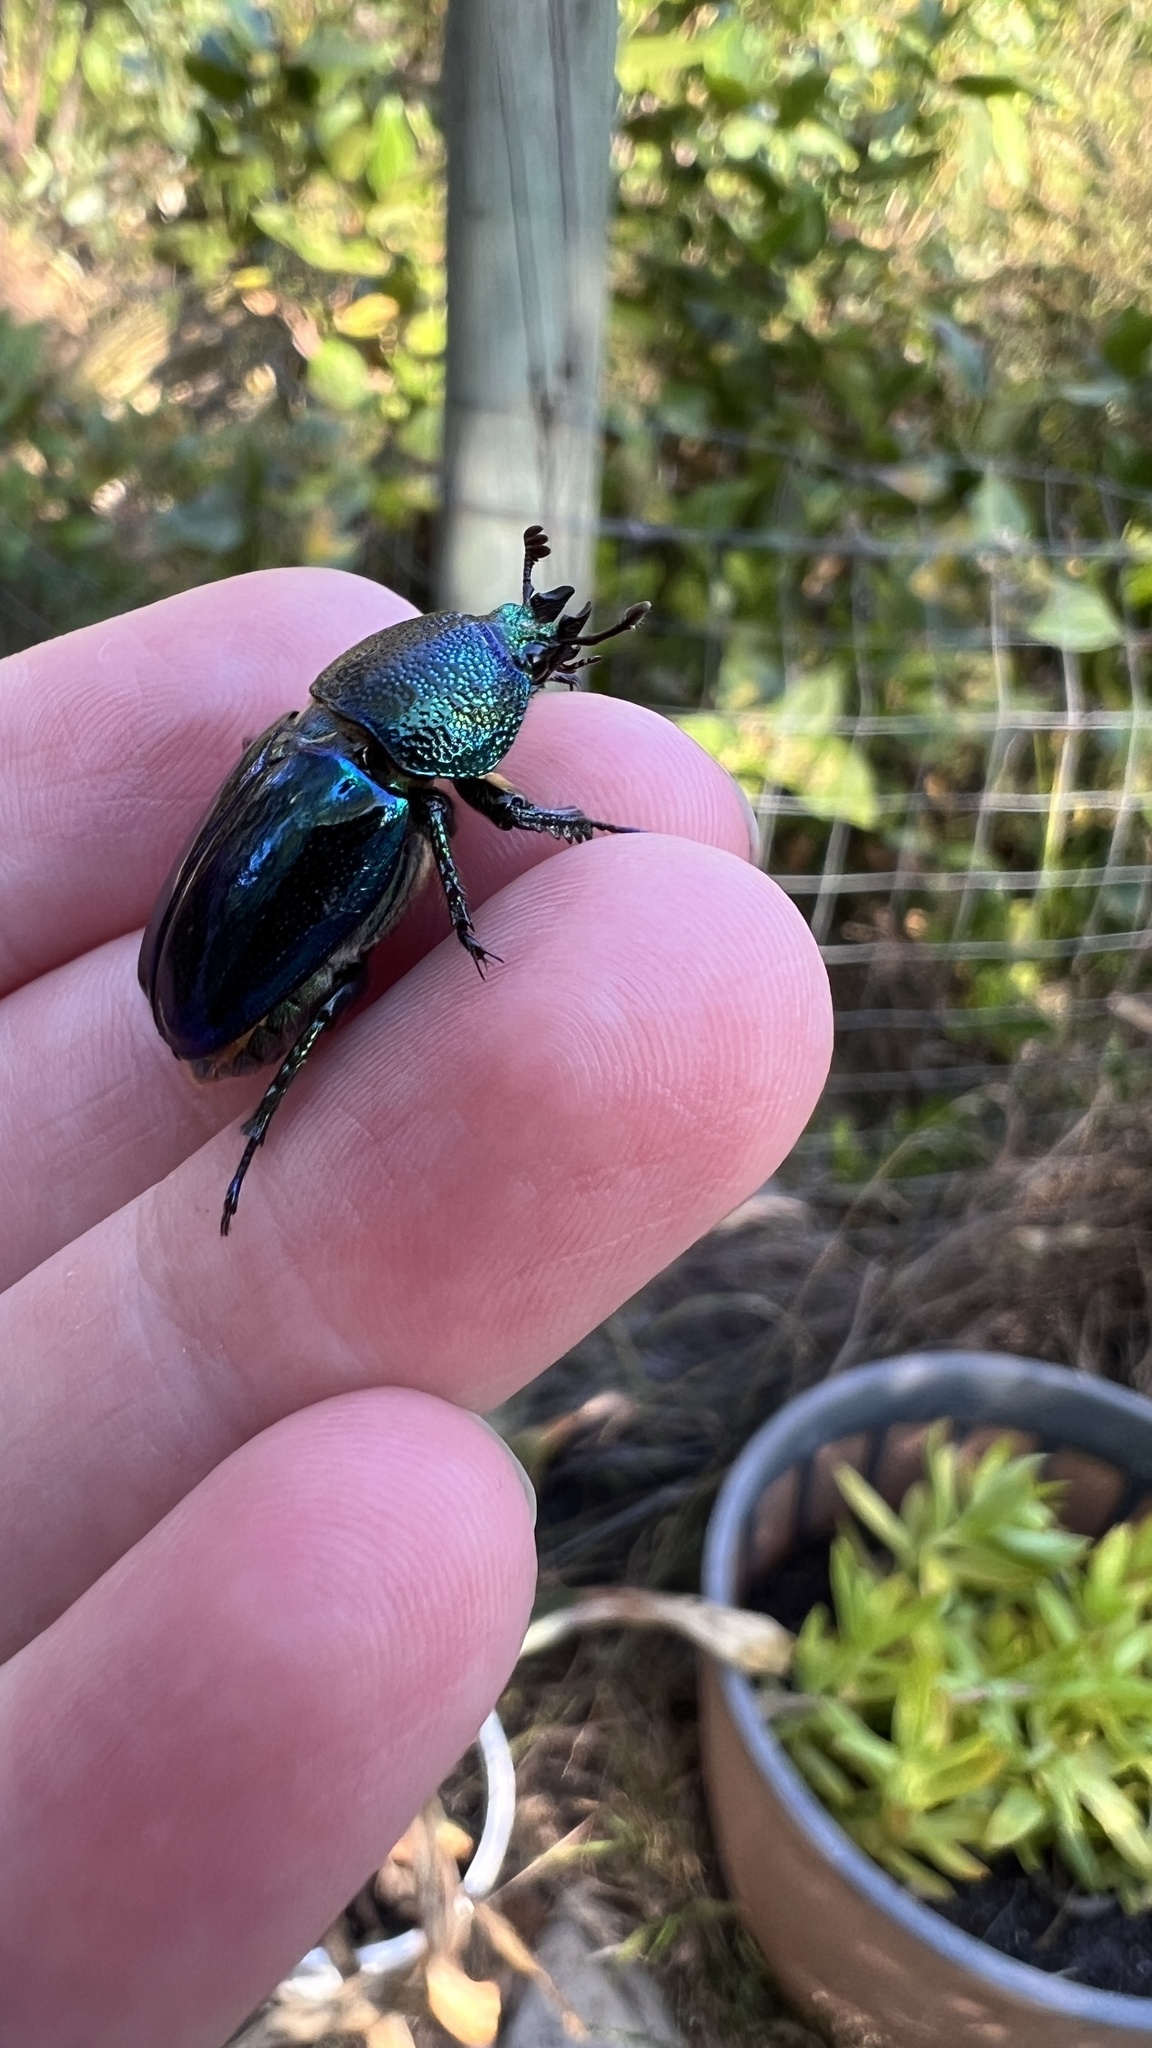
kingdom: Animalia
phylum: Arthropoda
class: Insecta
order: Coleoptera
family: Lucanidae
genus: Lamprima
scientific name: Lamprima aurata
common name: Golden stag beetle
